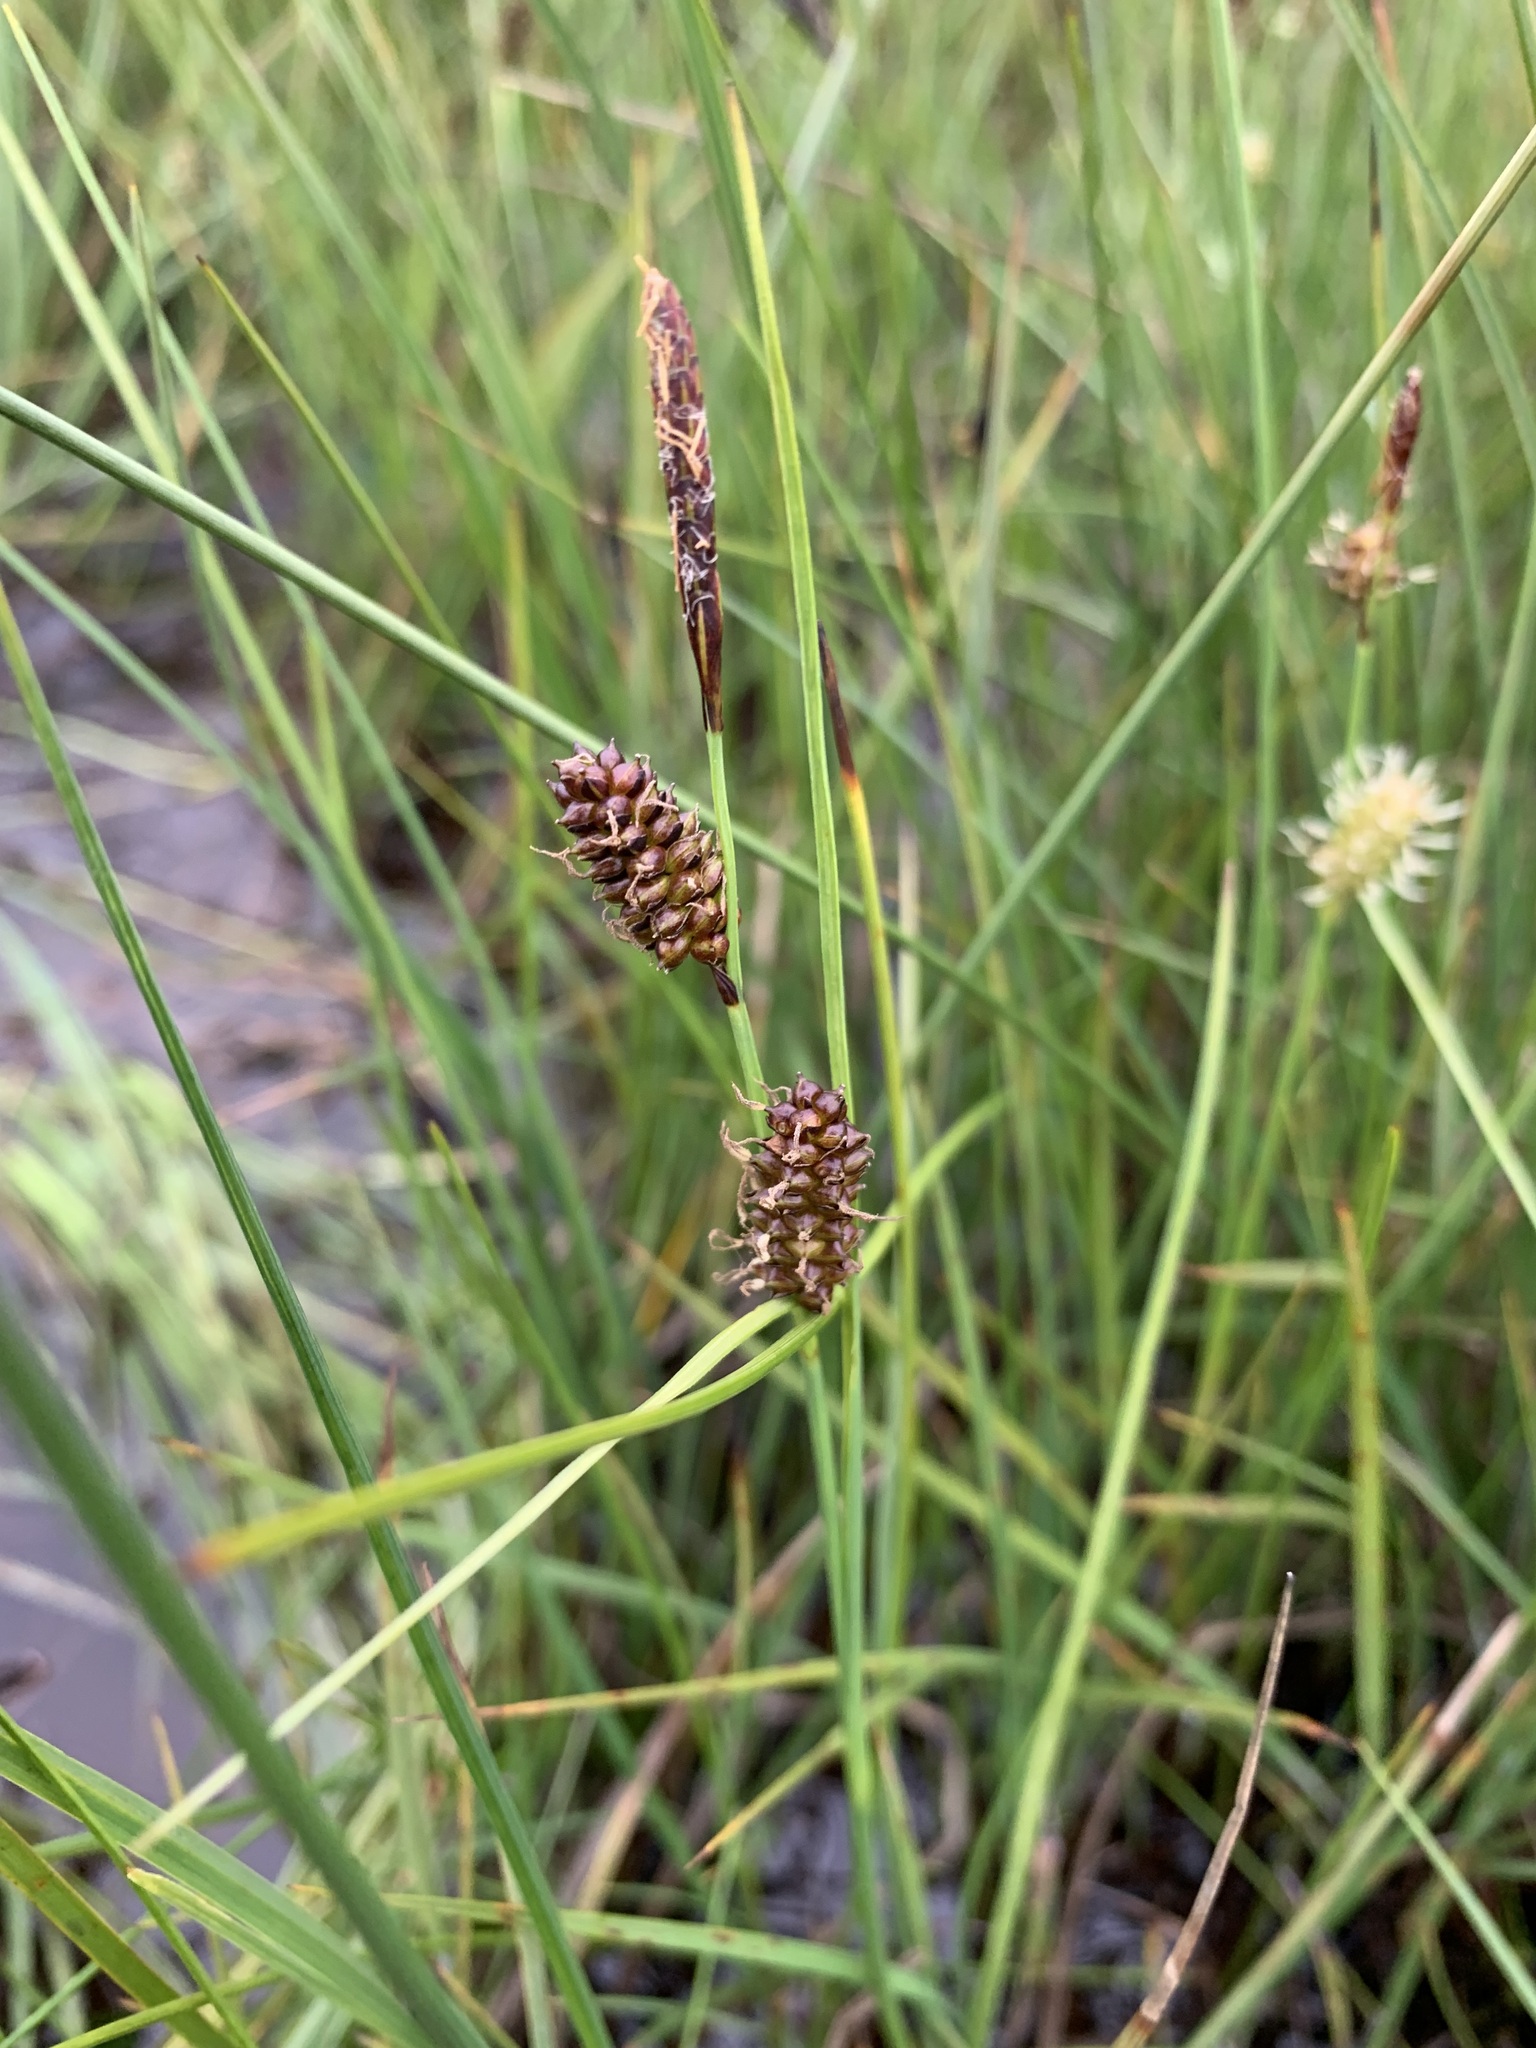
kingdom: Plantae
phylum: Tracheophyta
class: Liliopsida
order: Poales
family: Cyperaceae
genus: Carex
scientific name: Carex rotundata
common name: Round-fruited sedge
